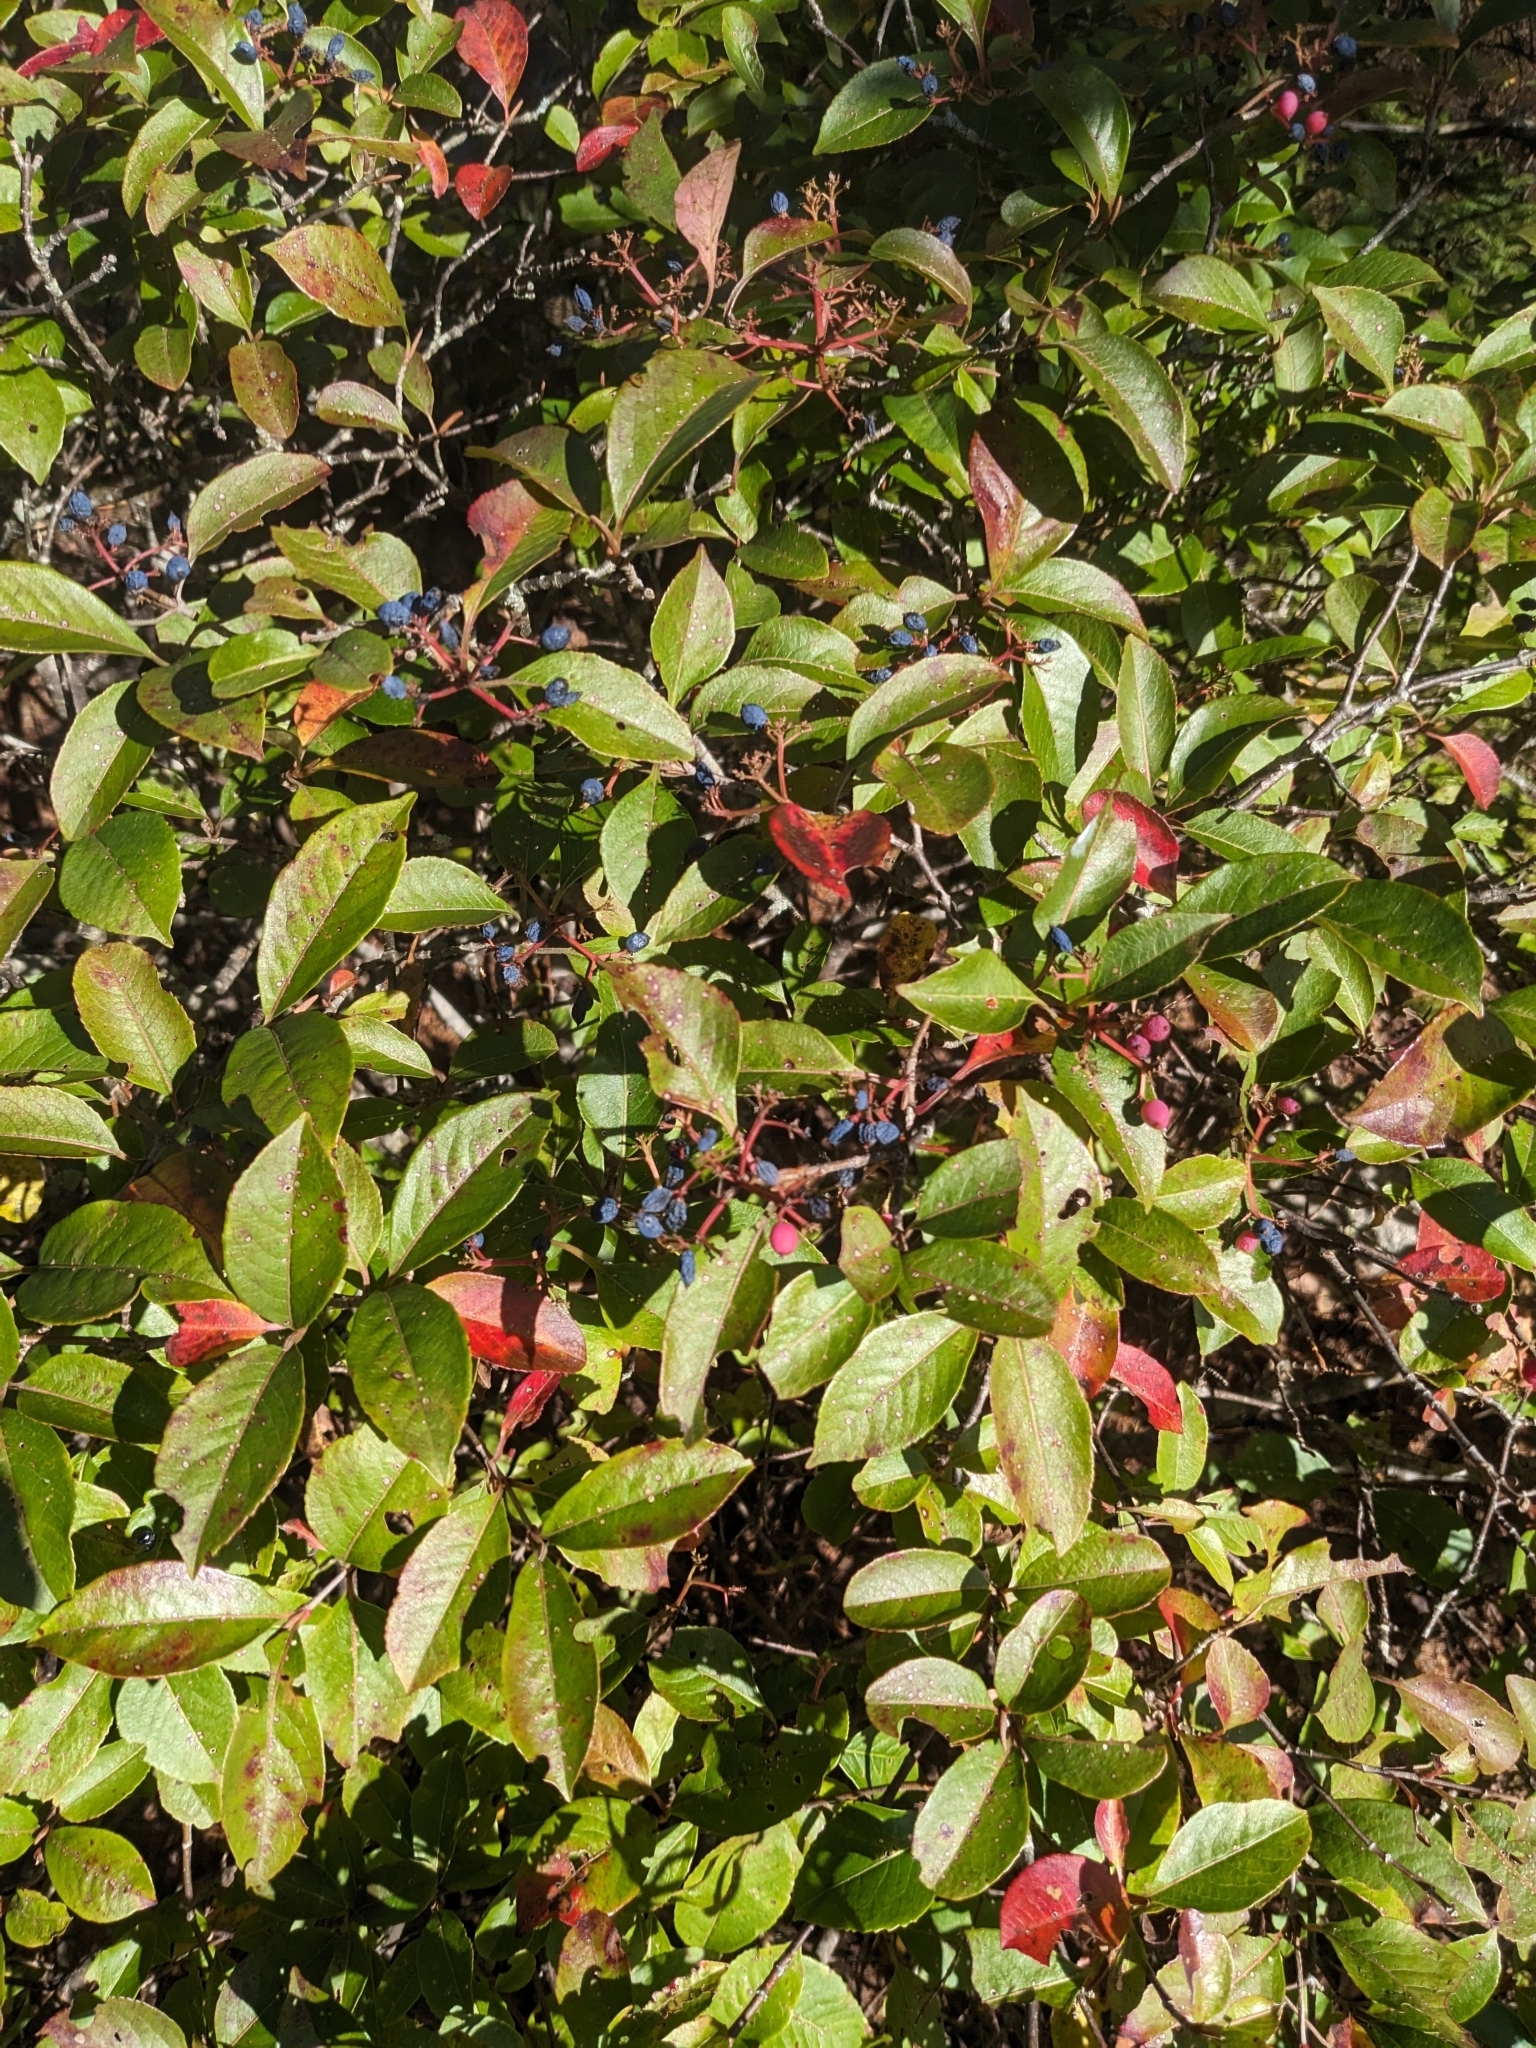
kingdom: Plantae
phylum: Tracheophyta
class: Magnoliopsida
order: Dipsacales
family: Viburnaceae
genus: Viburnum
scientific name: Viburnum cassinoides
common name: Swamp haw
